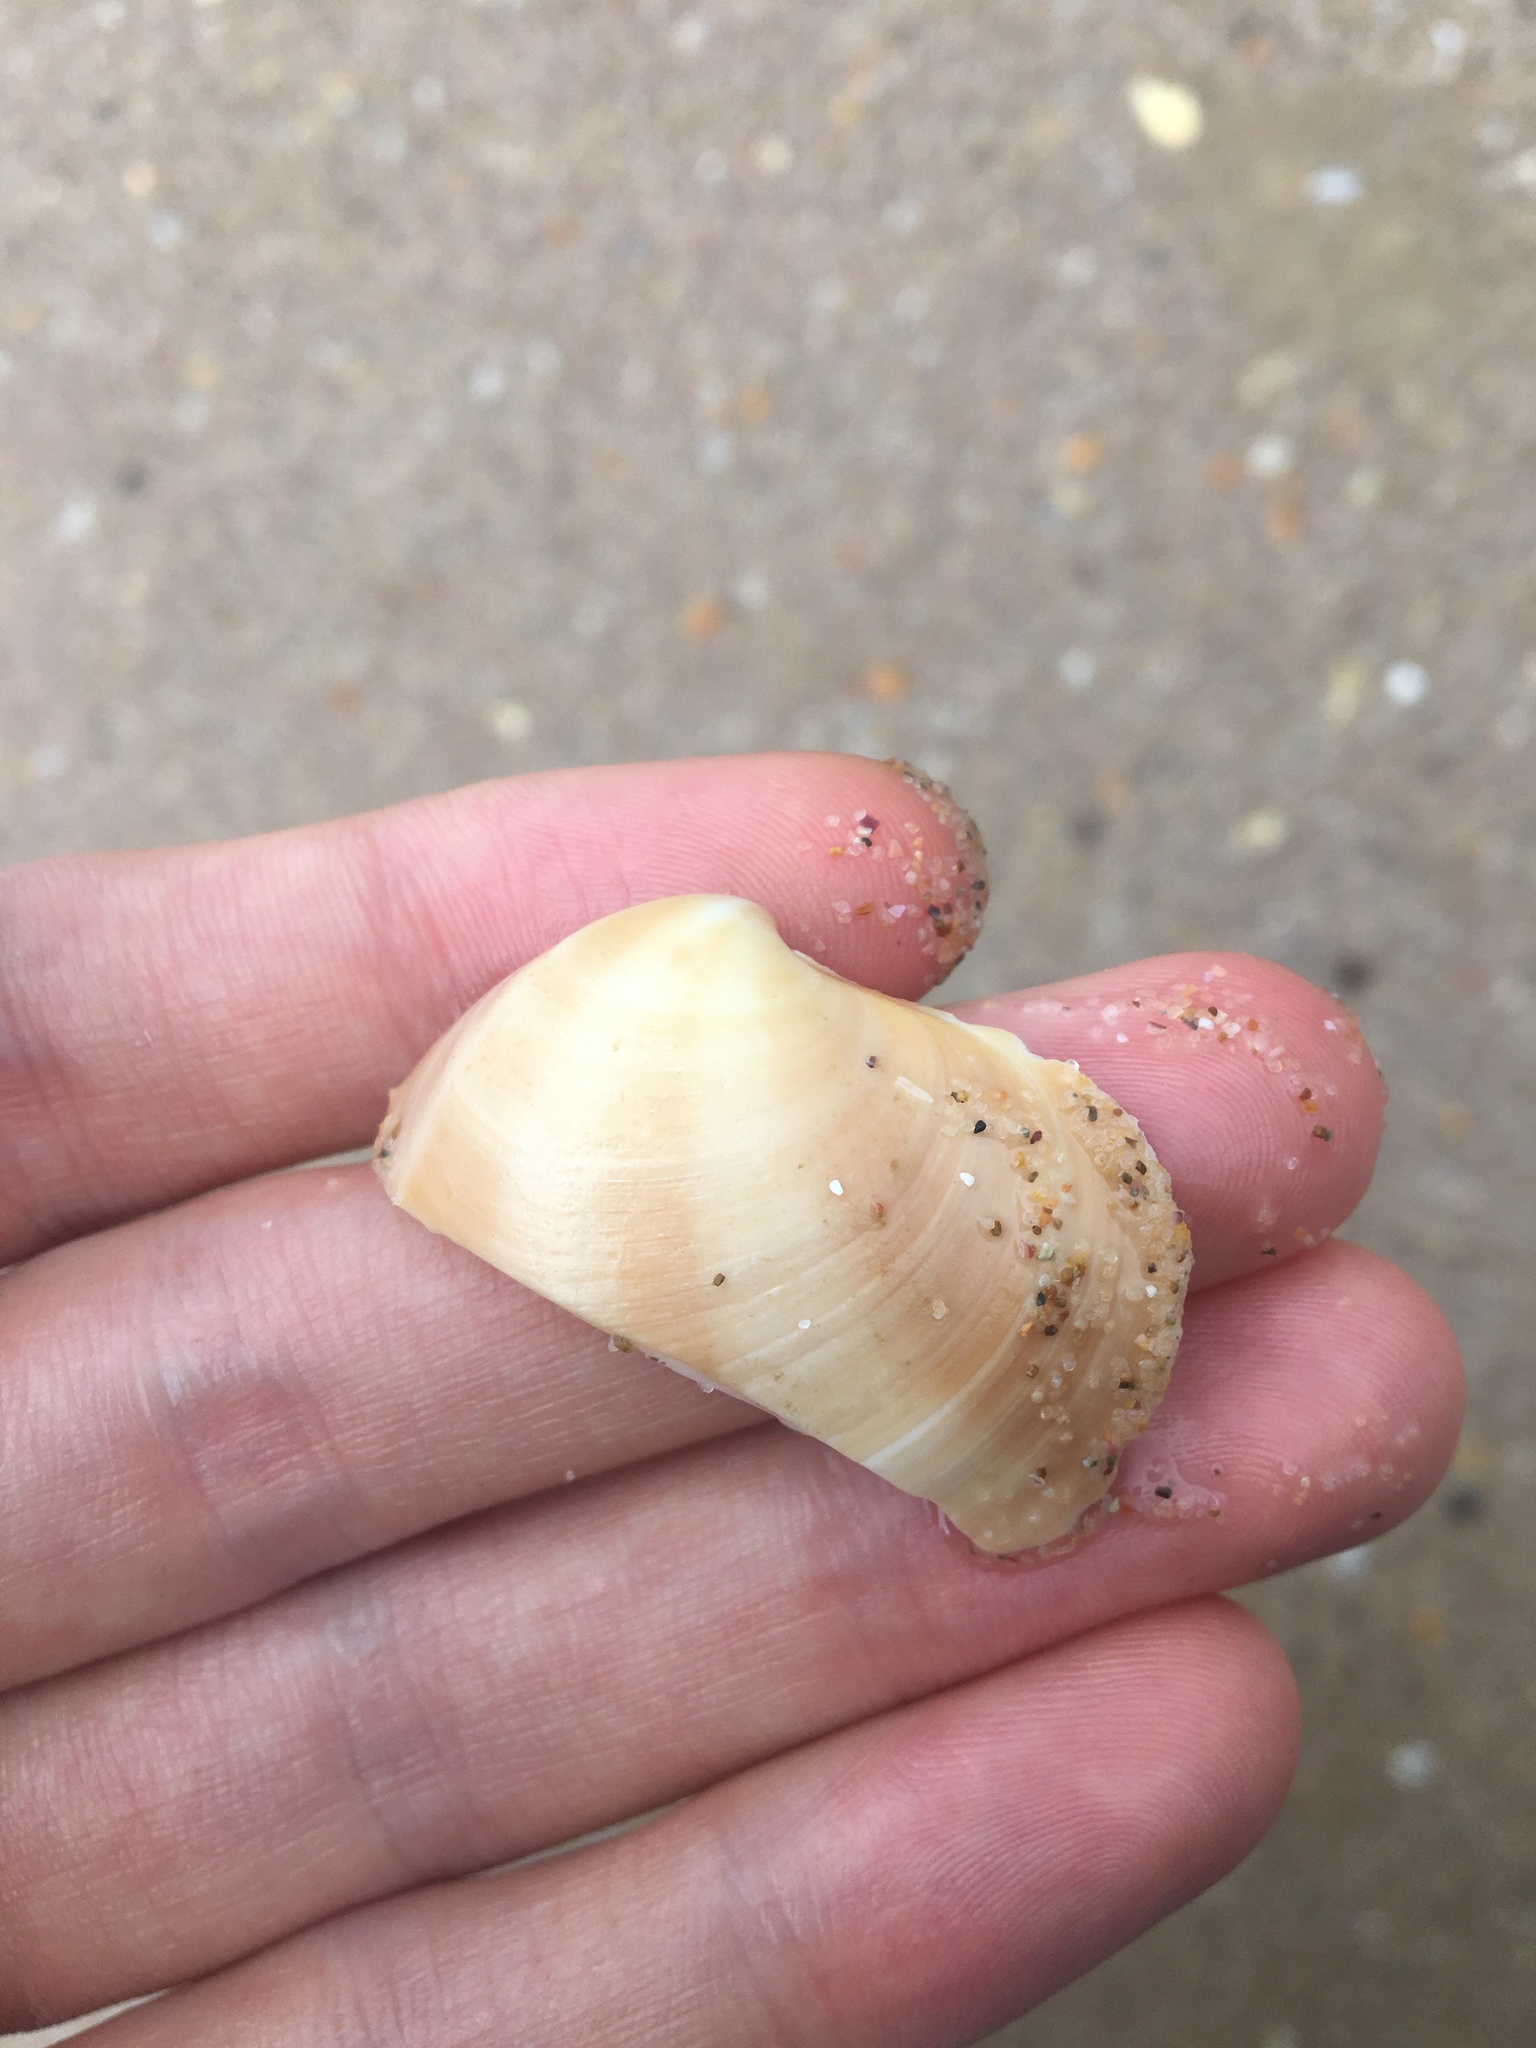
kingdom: Animalia
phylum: Mollusca
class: Bivalvia
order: Venerida
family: Veneridae
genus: Bassina
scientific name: Bassina pachyphylla
